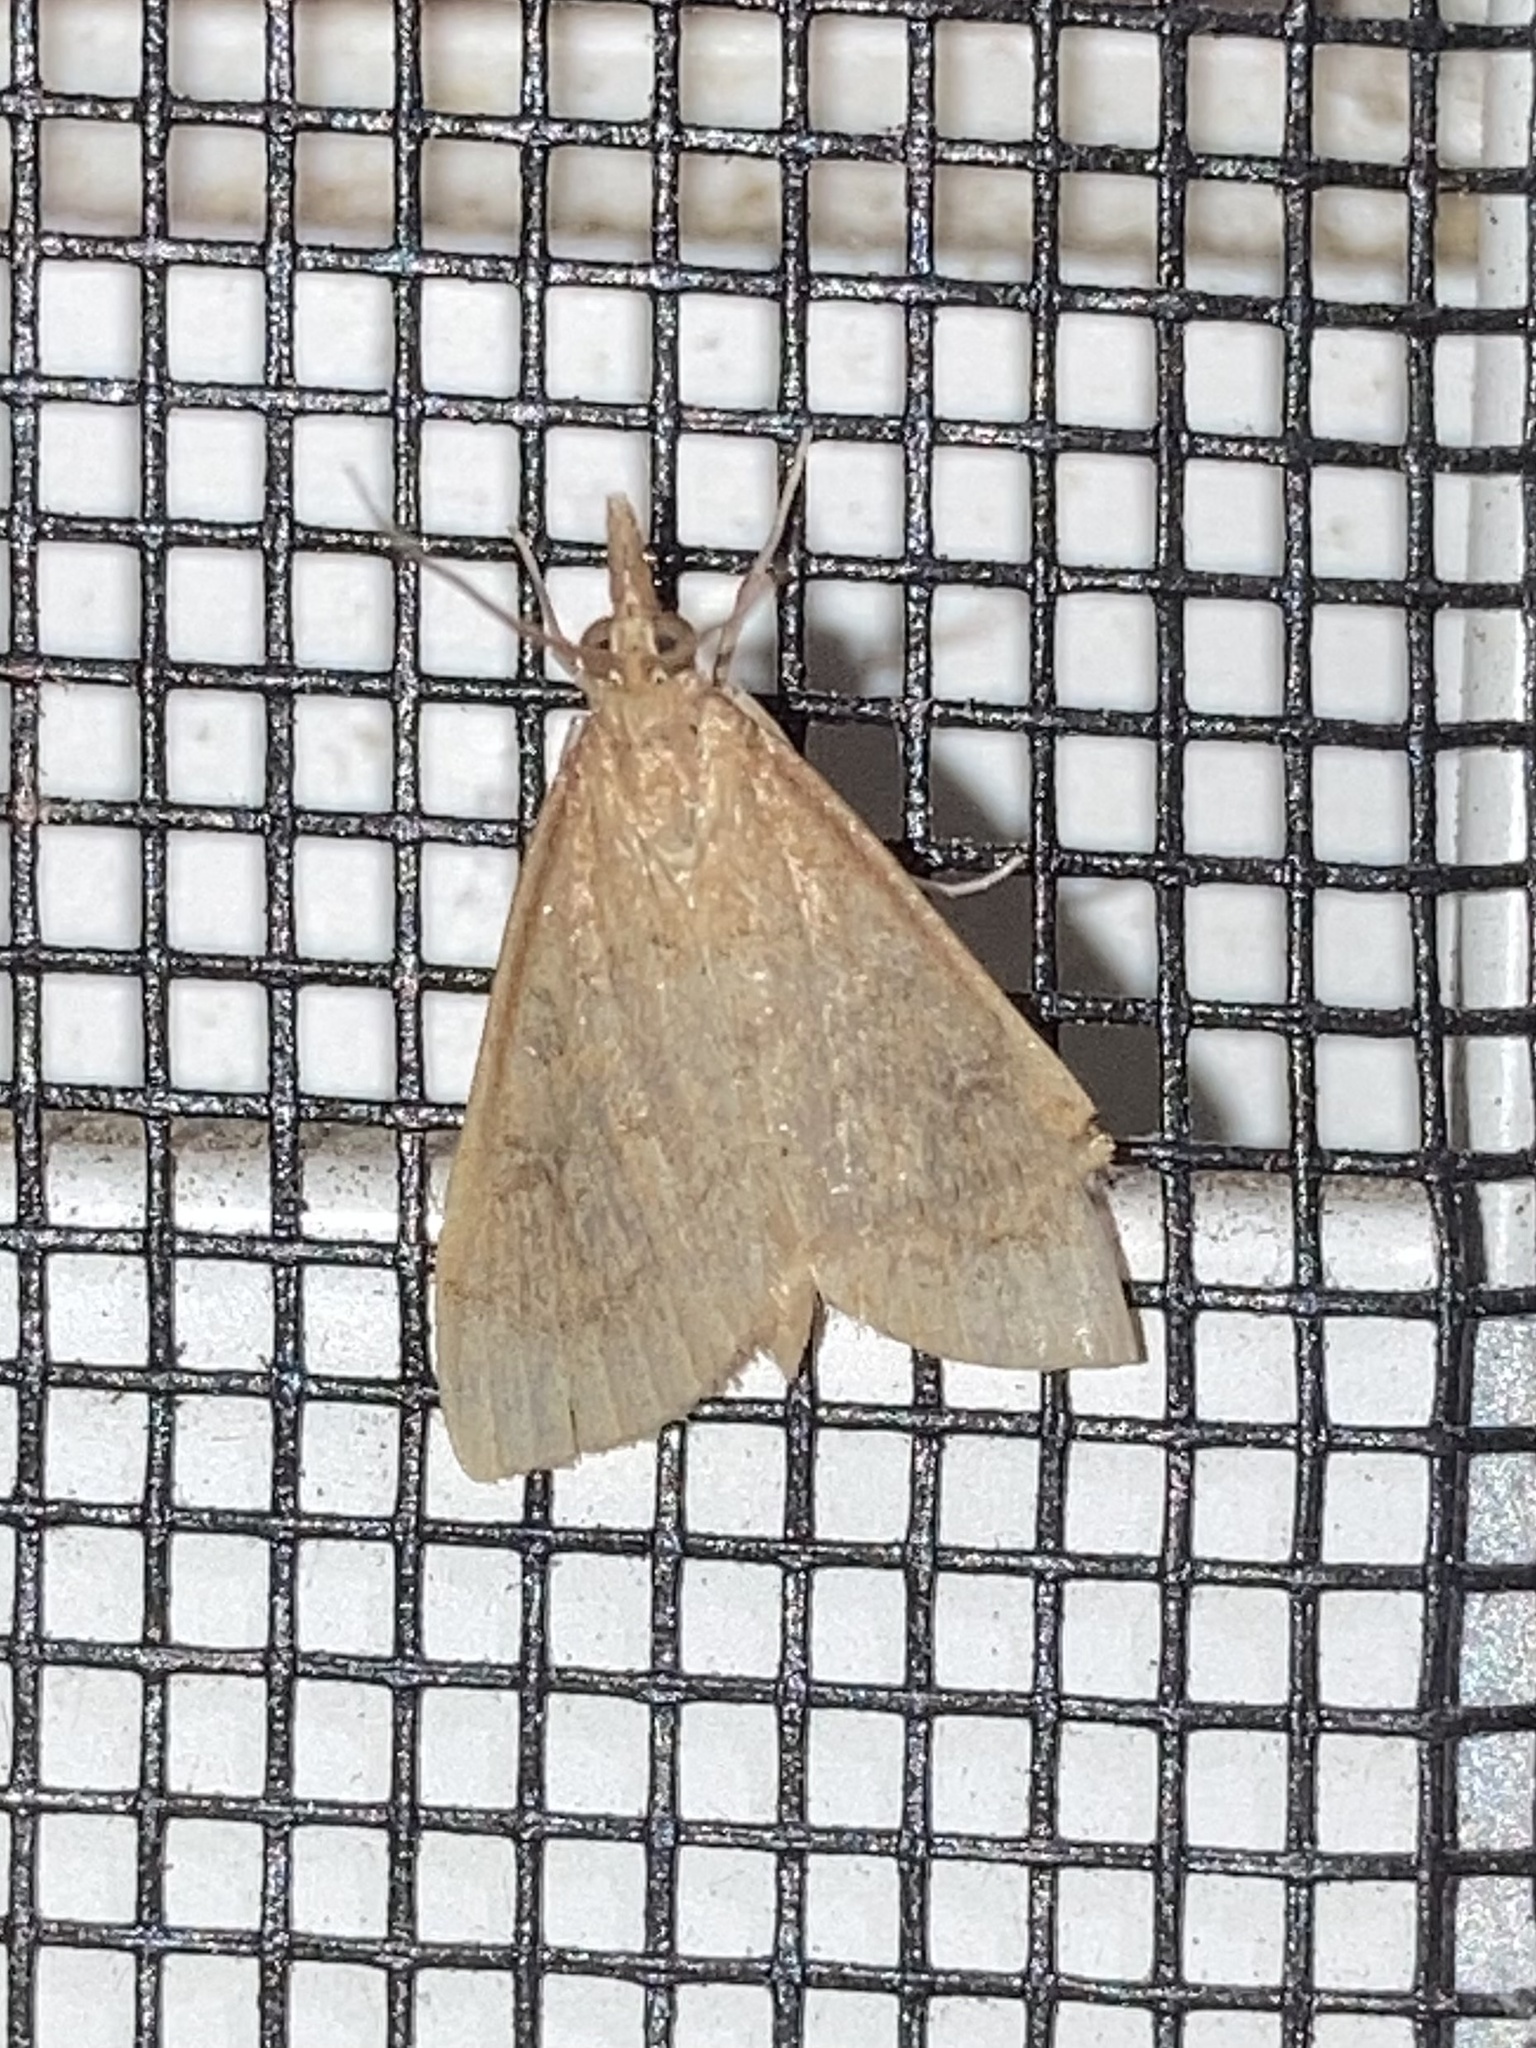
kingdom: Animalia
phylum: Arthropoda
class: Insecta
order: Lepidoptera
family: Crambidae
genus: Udea
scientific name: Udea rubigalis
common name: Celery leaftier moth
